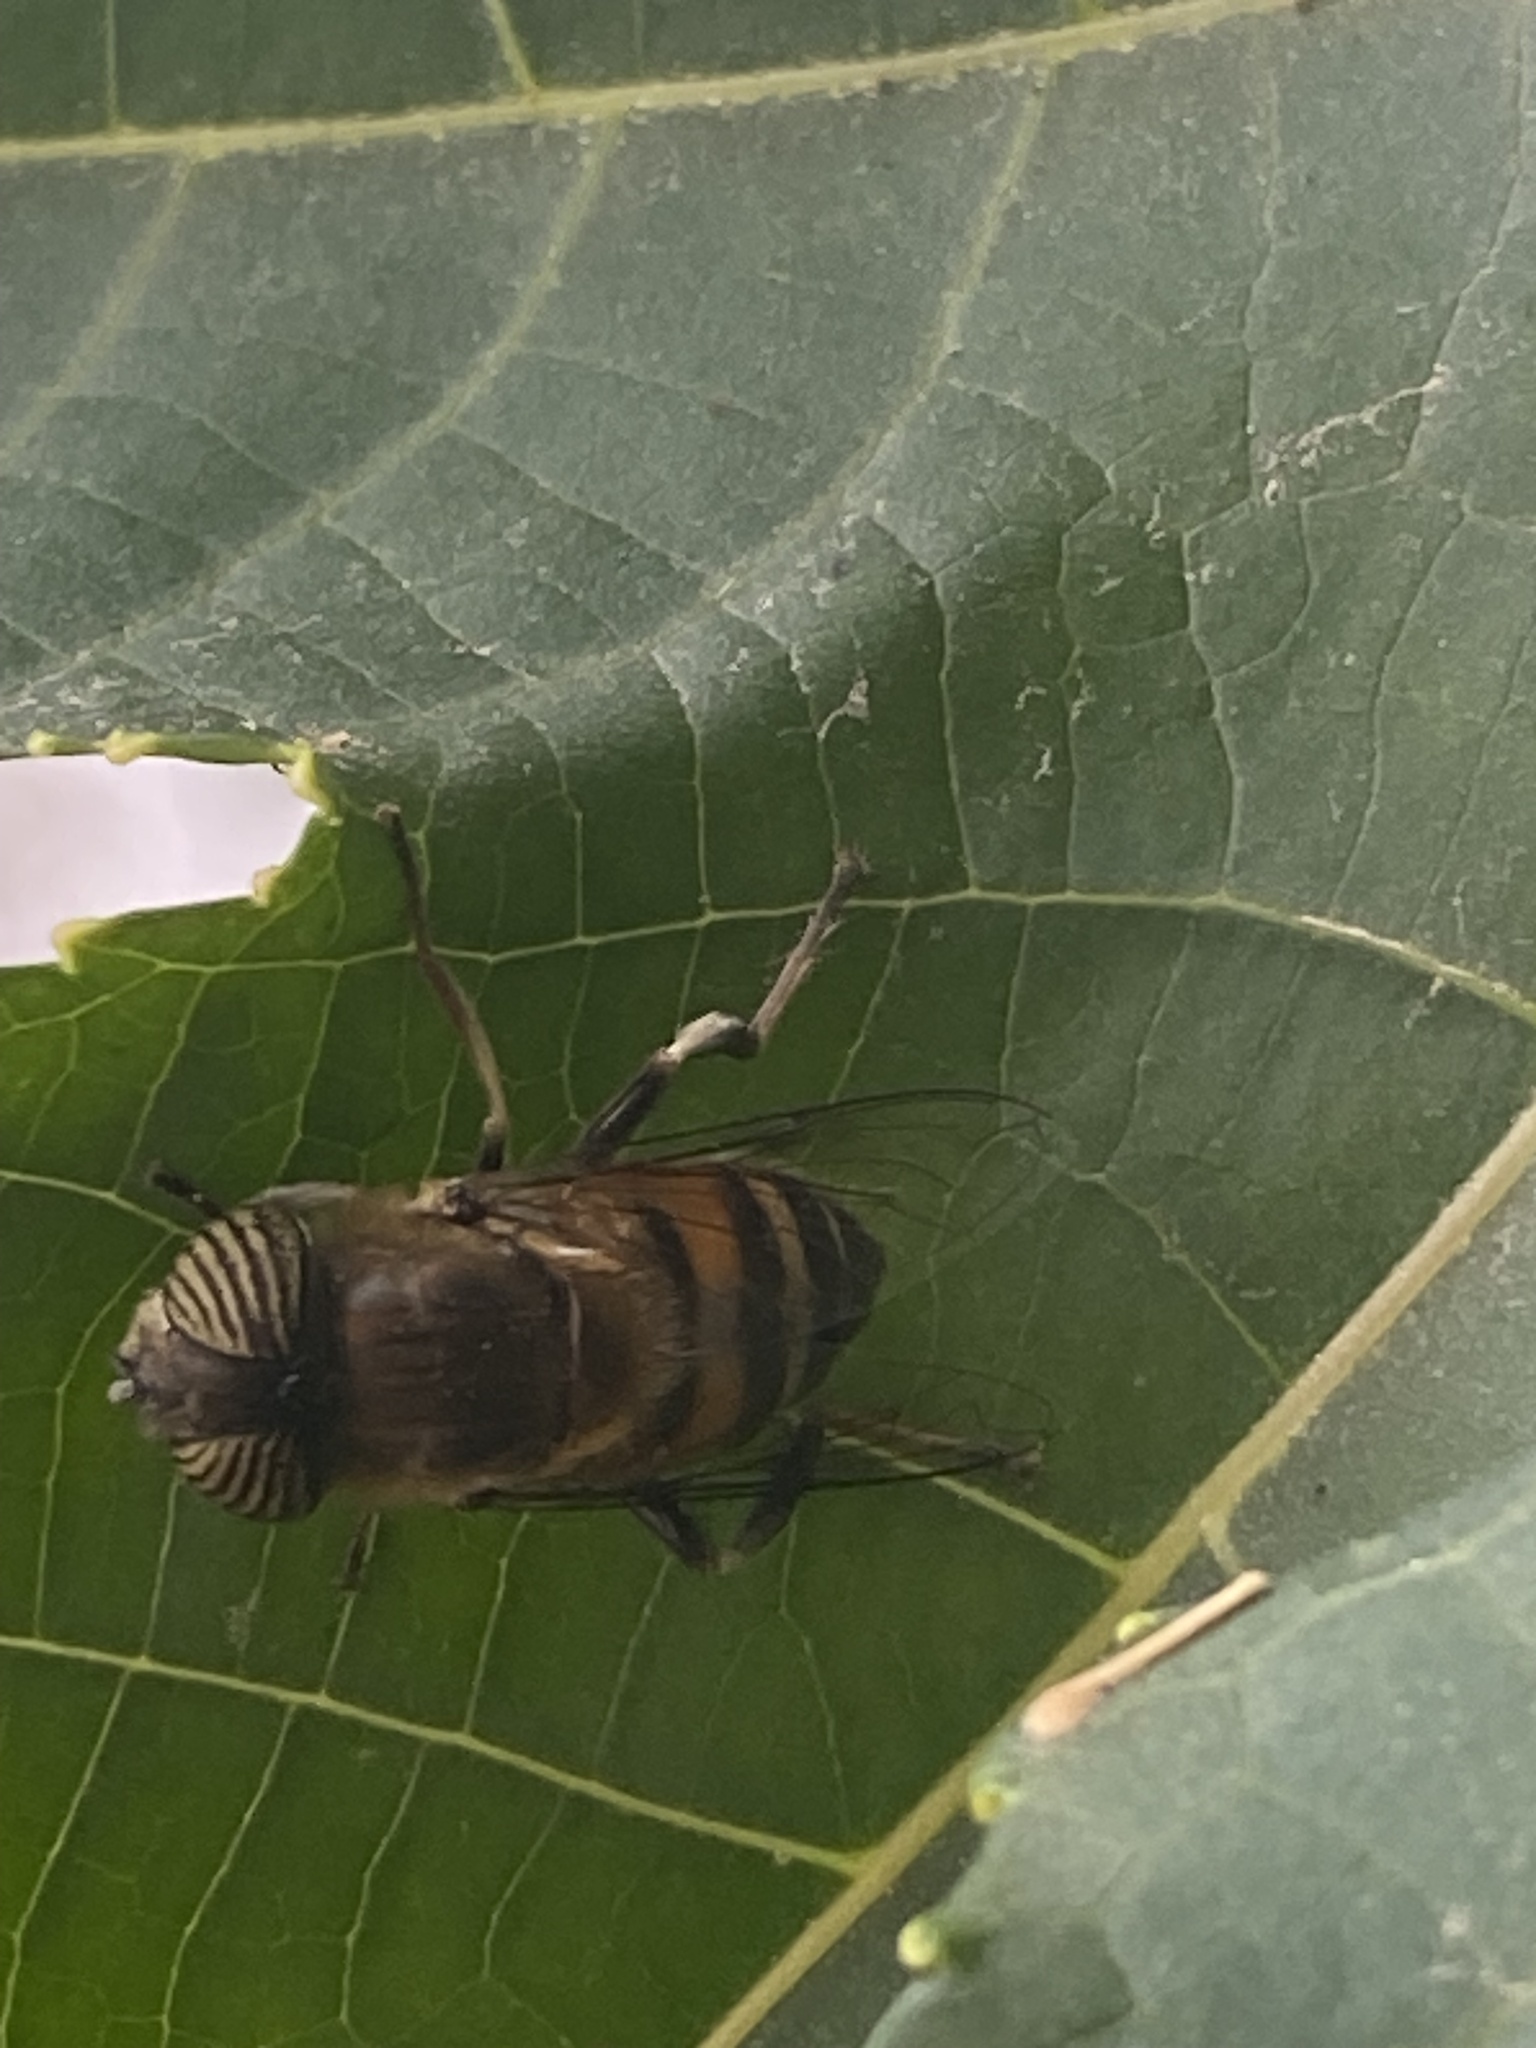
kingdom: Animalia
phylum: Arthropoda
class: Insecta
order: Diptera
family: Syrphidae
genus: Eristalinus
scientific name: Eristalinus taeniops
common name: Syrphid fly
